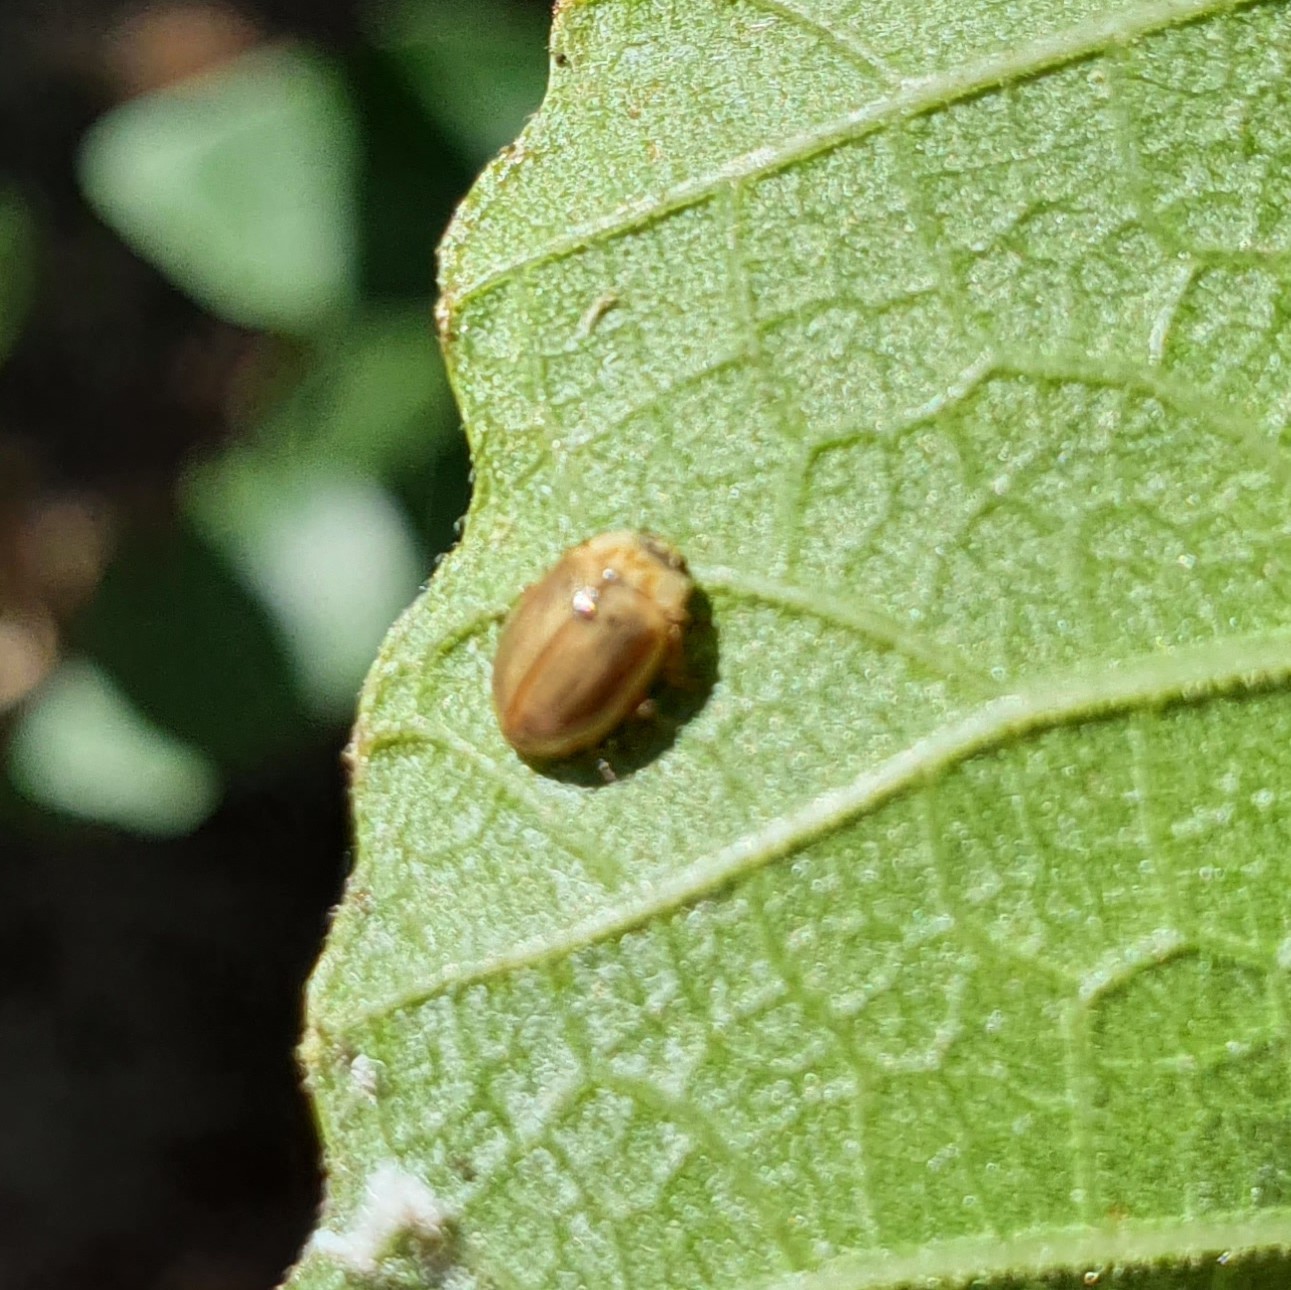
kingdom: Animalia
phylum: Arthropoda
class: Insecta
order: Coleoptera
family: Coccinellidae
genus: Aphidecta
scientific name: Aphidecta obliterata
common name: Larch ladybird
